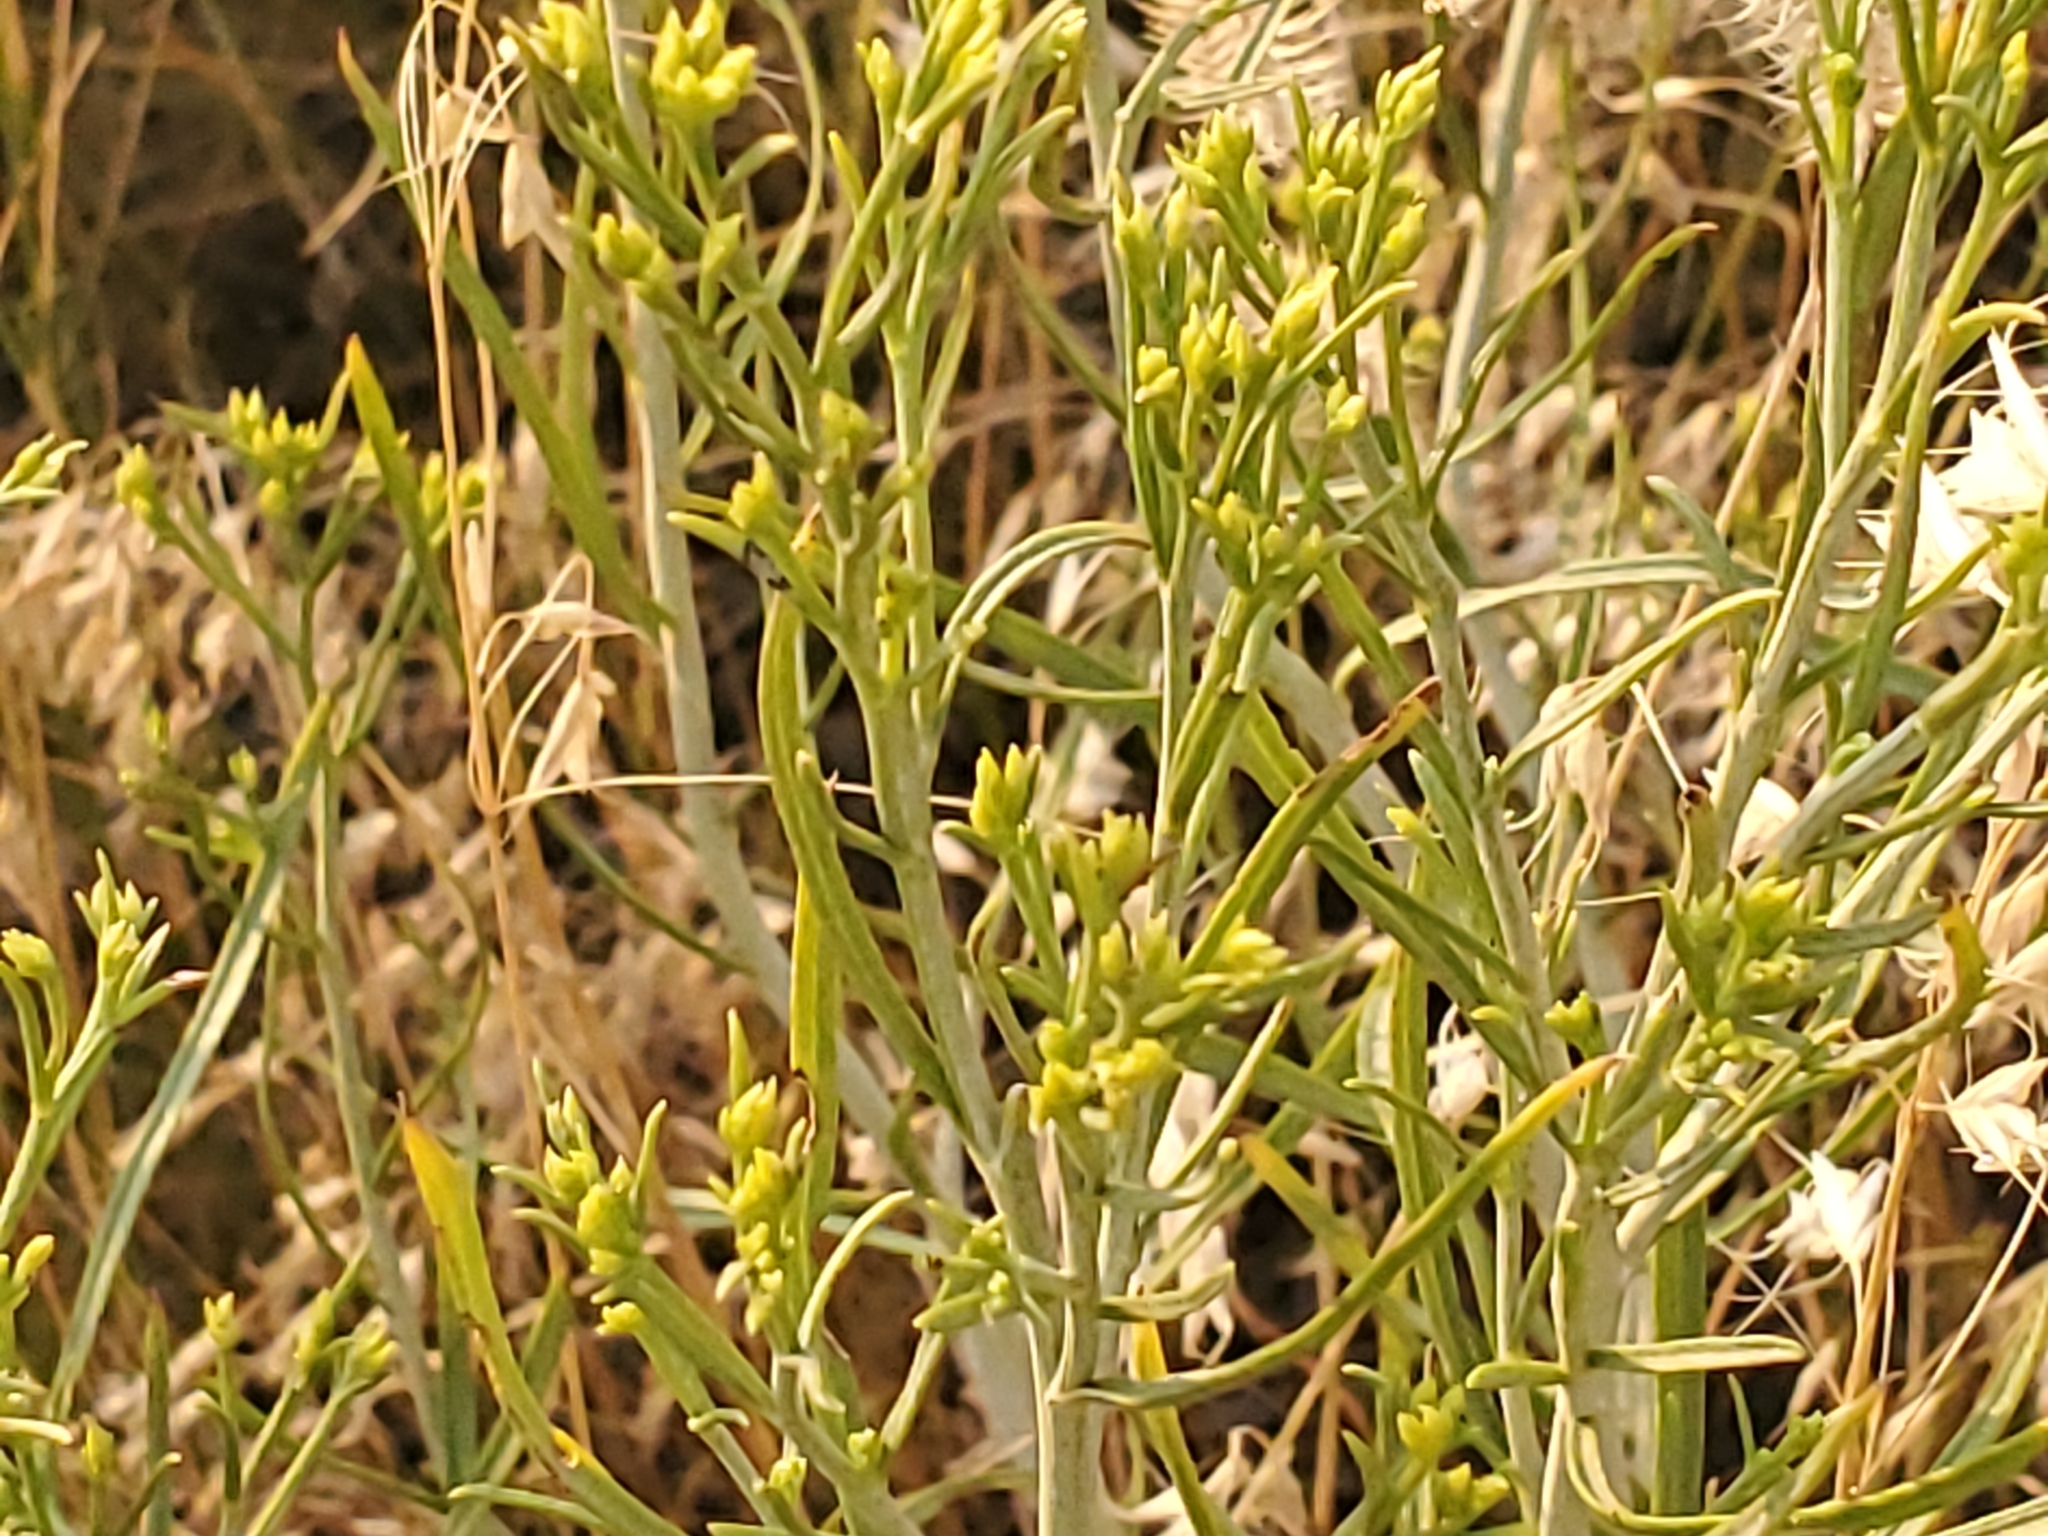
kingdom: Plantae
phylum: Tracheophyta
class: Magnoliopsida
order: Asterales
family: Asteraceae
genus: Gutierrezia
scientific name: Gutierrezia sarothrae
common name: Broom snakeweed
